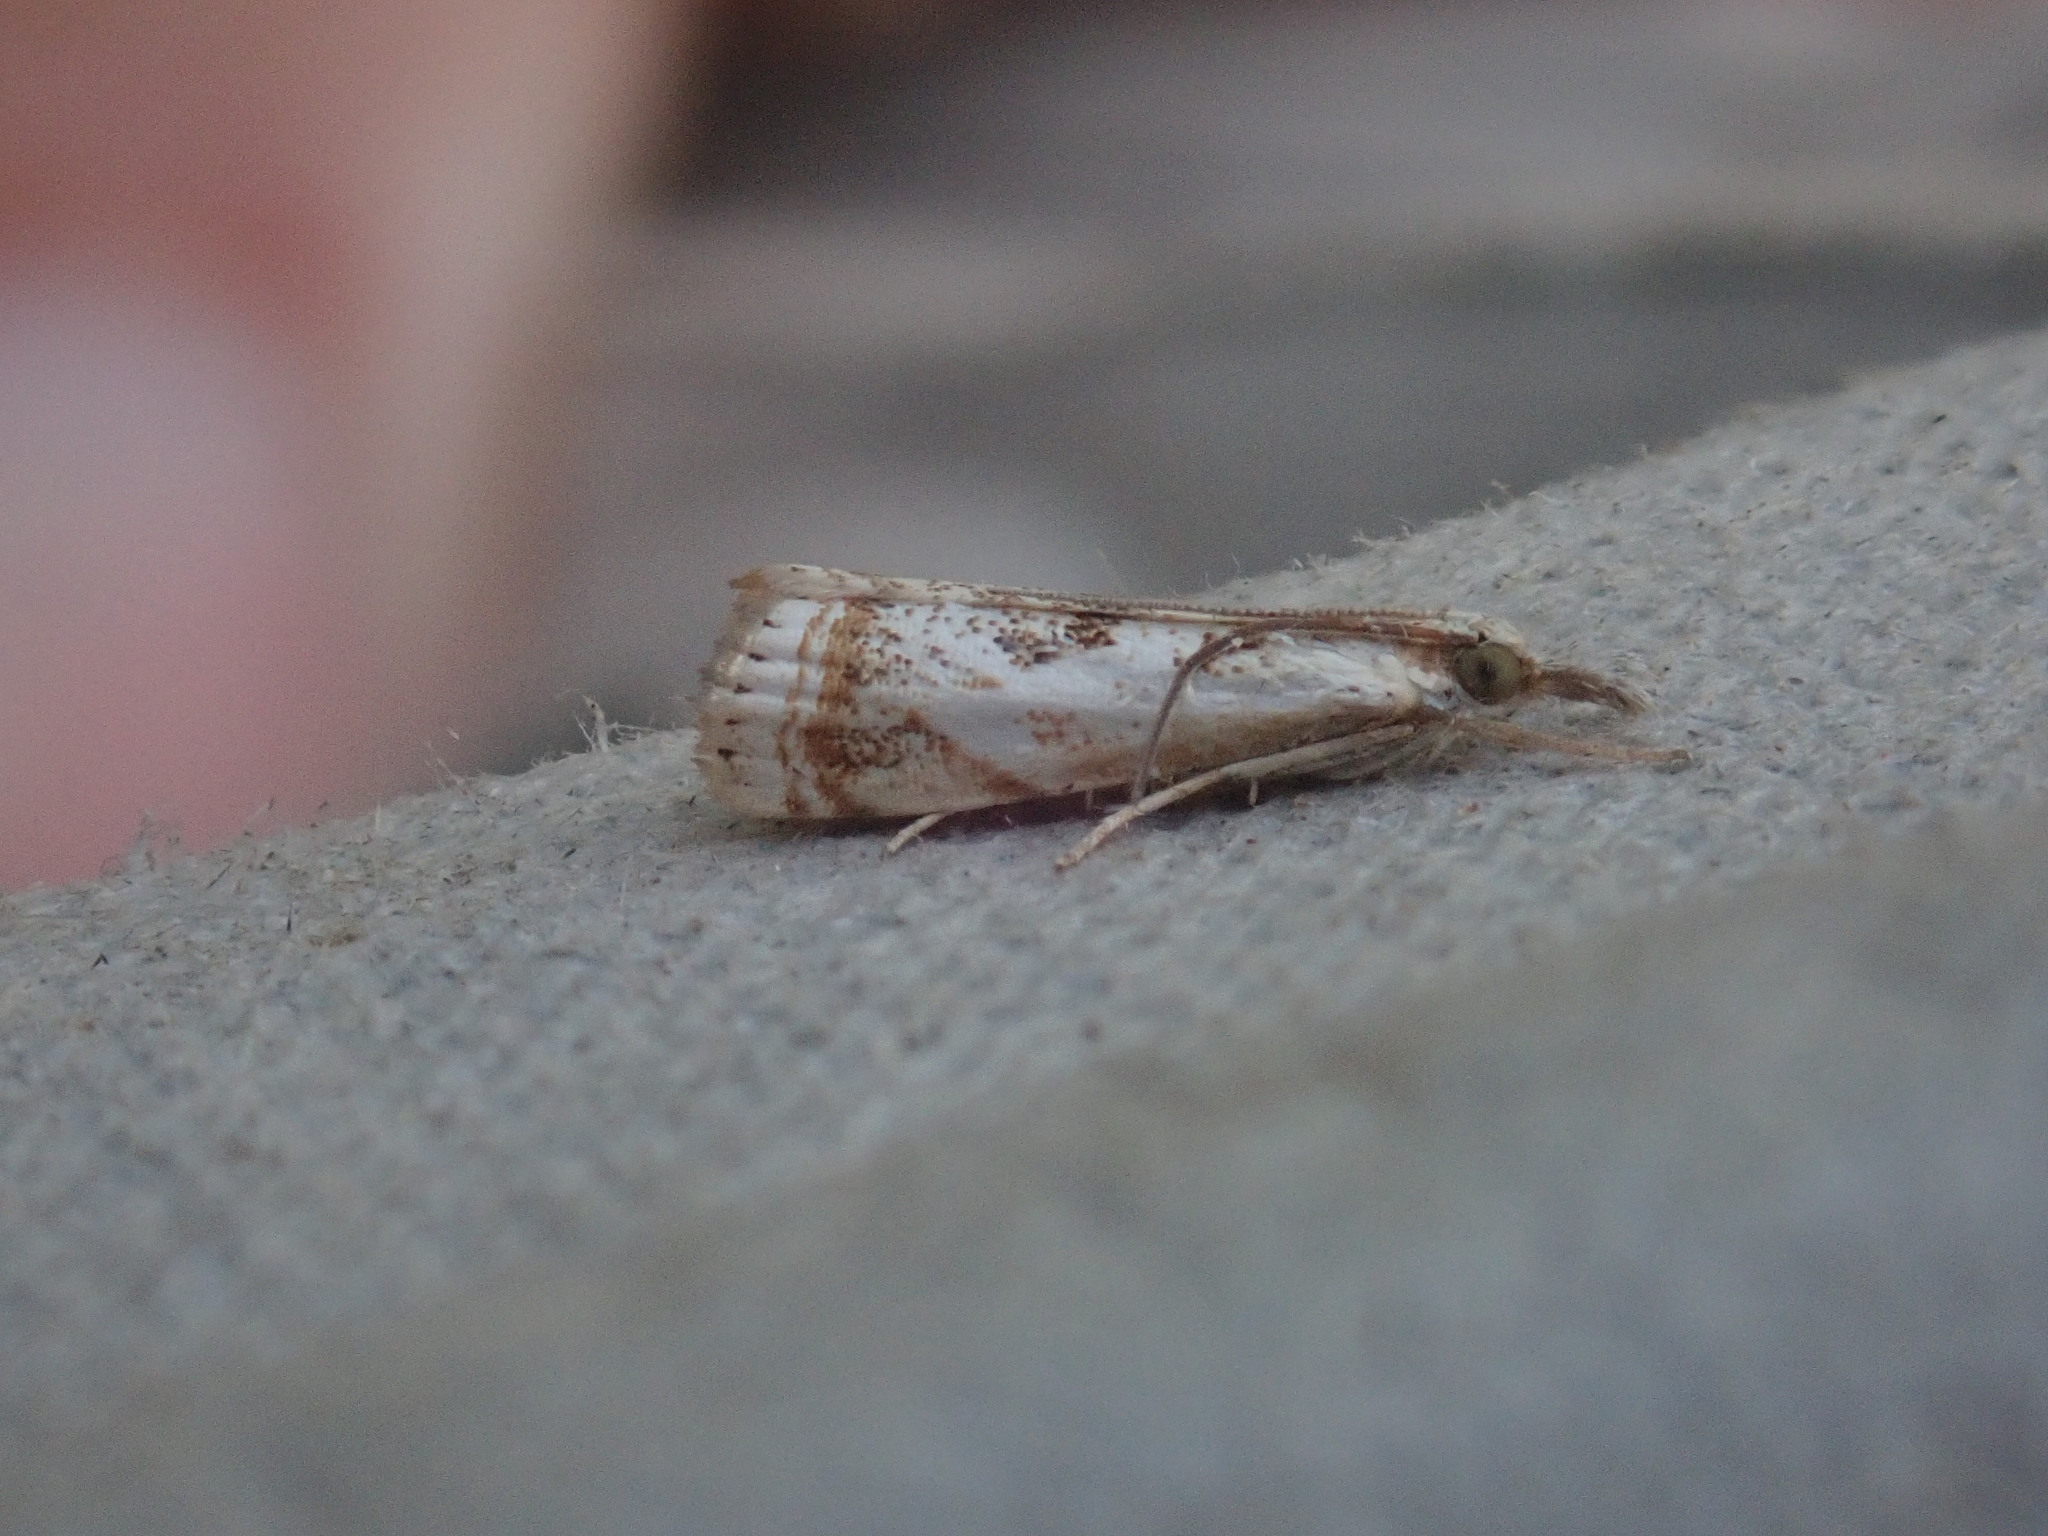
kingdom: Animalia
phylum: Arthropoda
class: Insecta
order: Lepidoptera
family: Crambidae
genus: Microcrambus
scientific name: Microcrambus elegans
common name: Elegant grass-veneer
